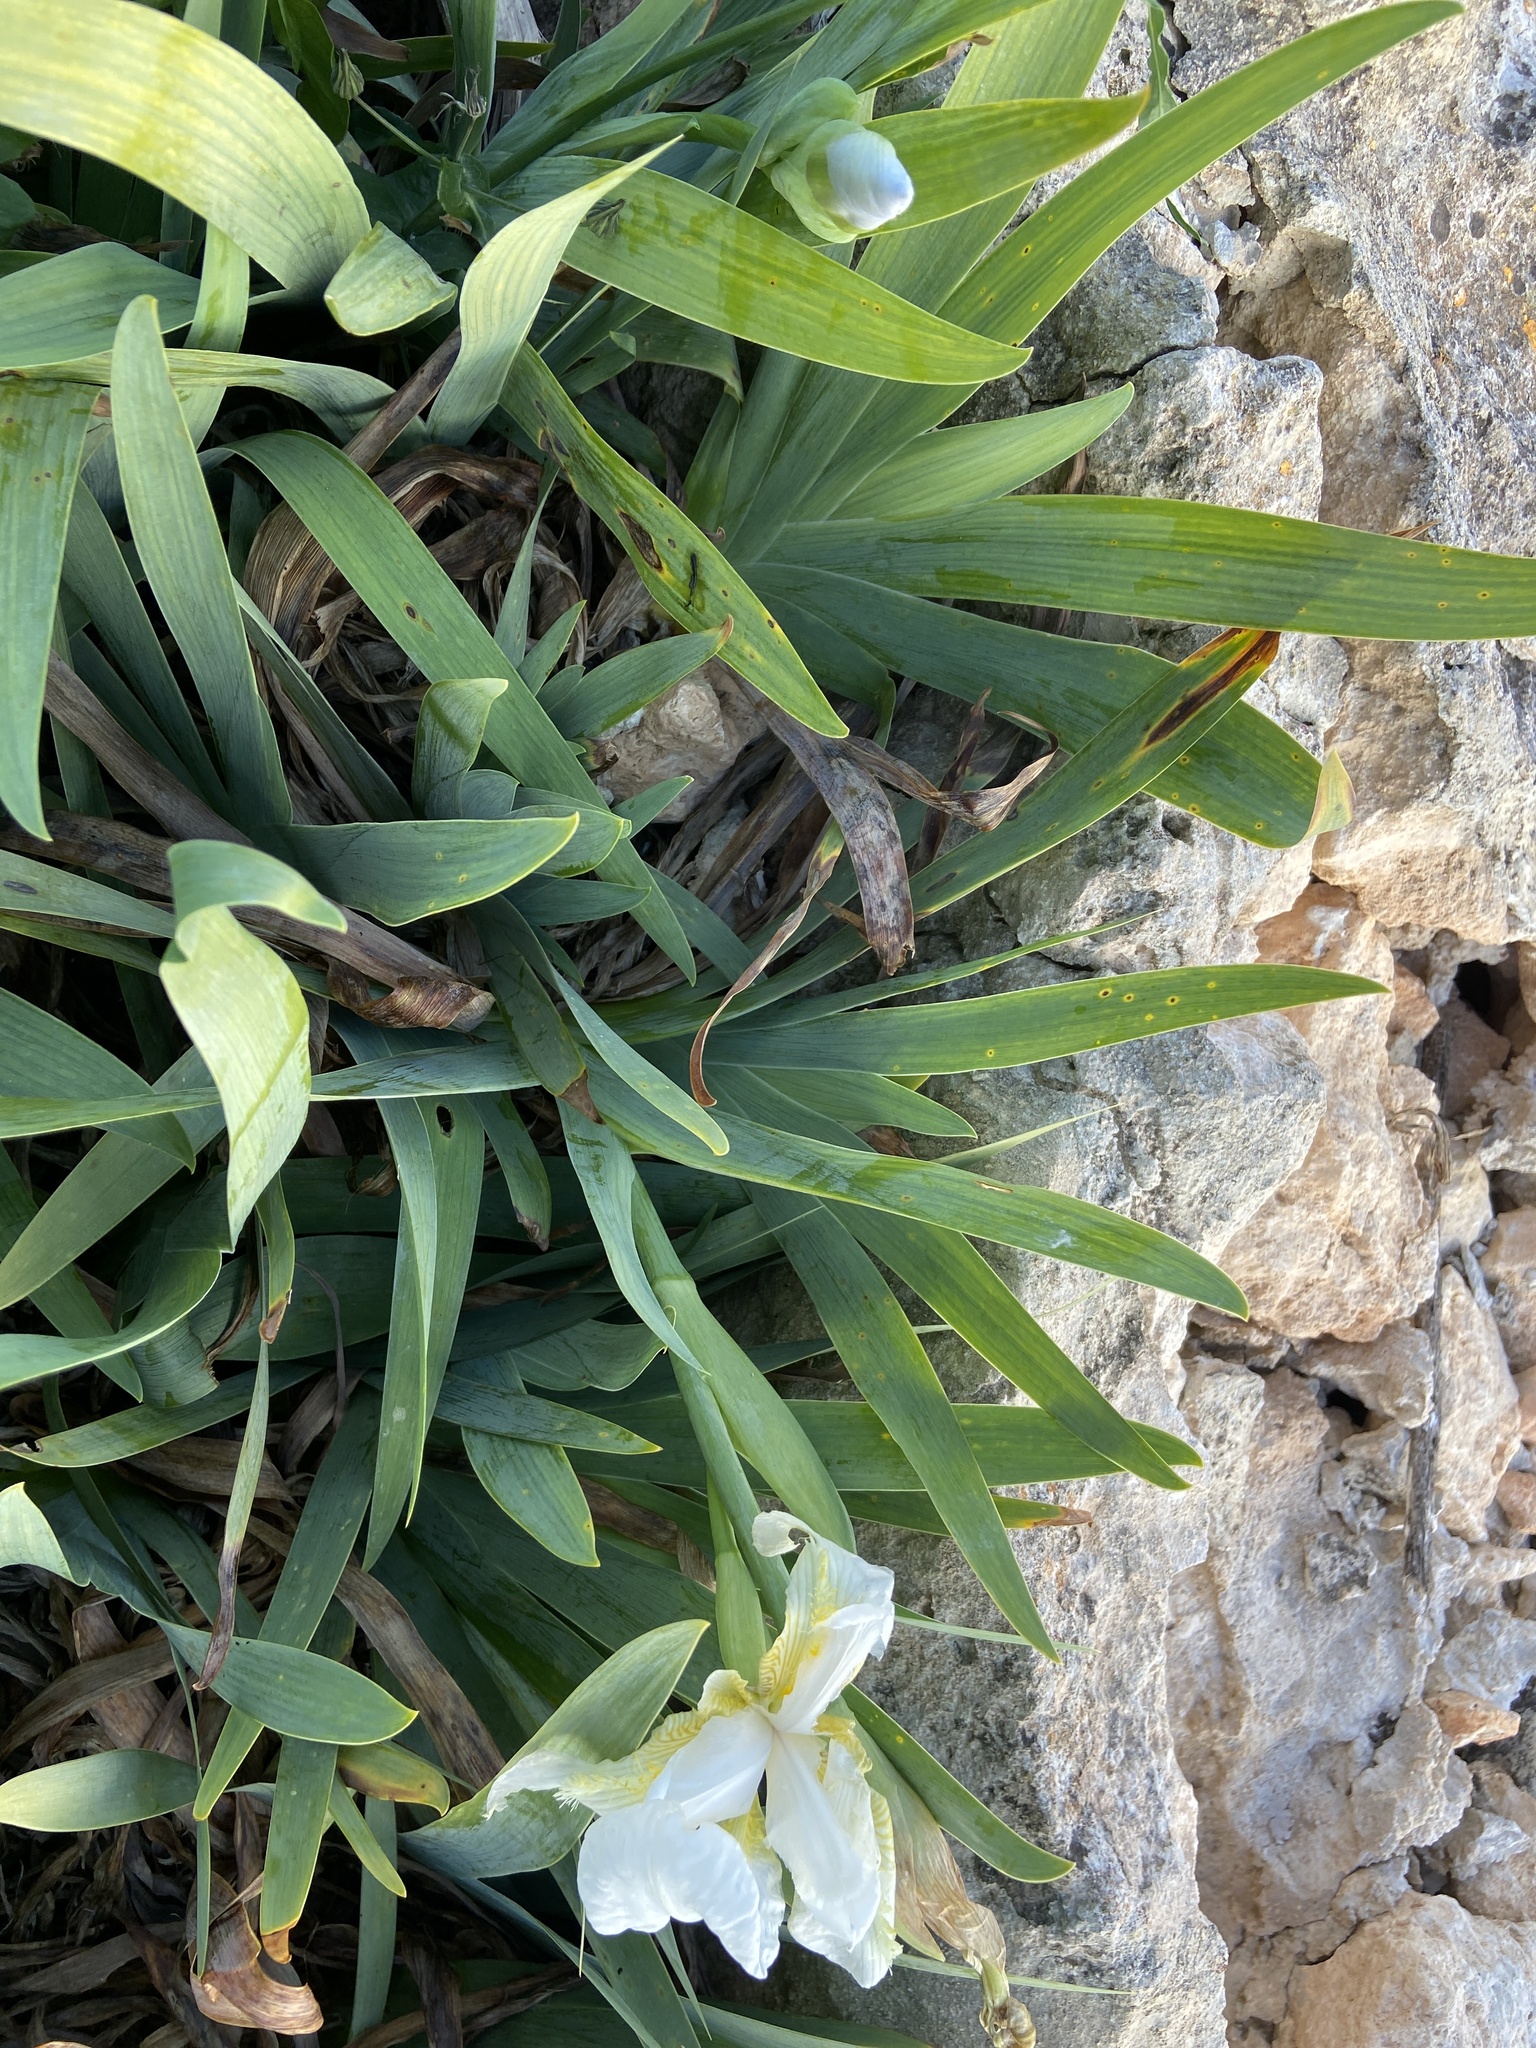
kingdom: Plantae
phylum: Tracheophyta
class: Liliopsida
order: Asparagales
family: Iridaceae
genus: Iris
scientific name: Iris florentina
